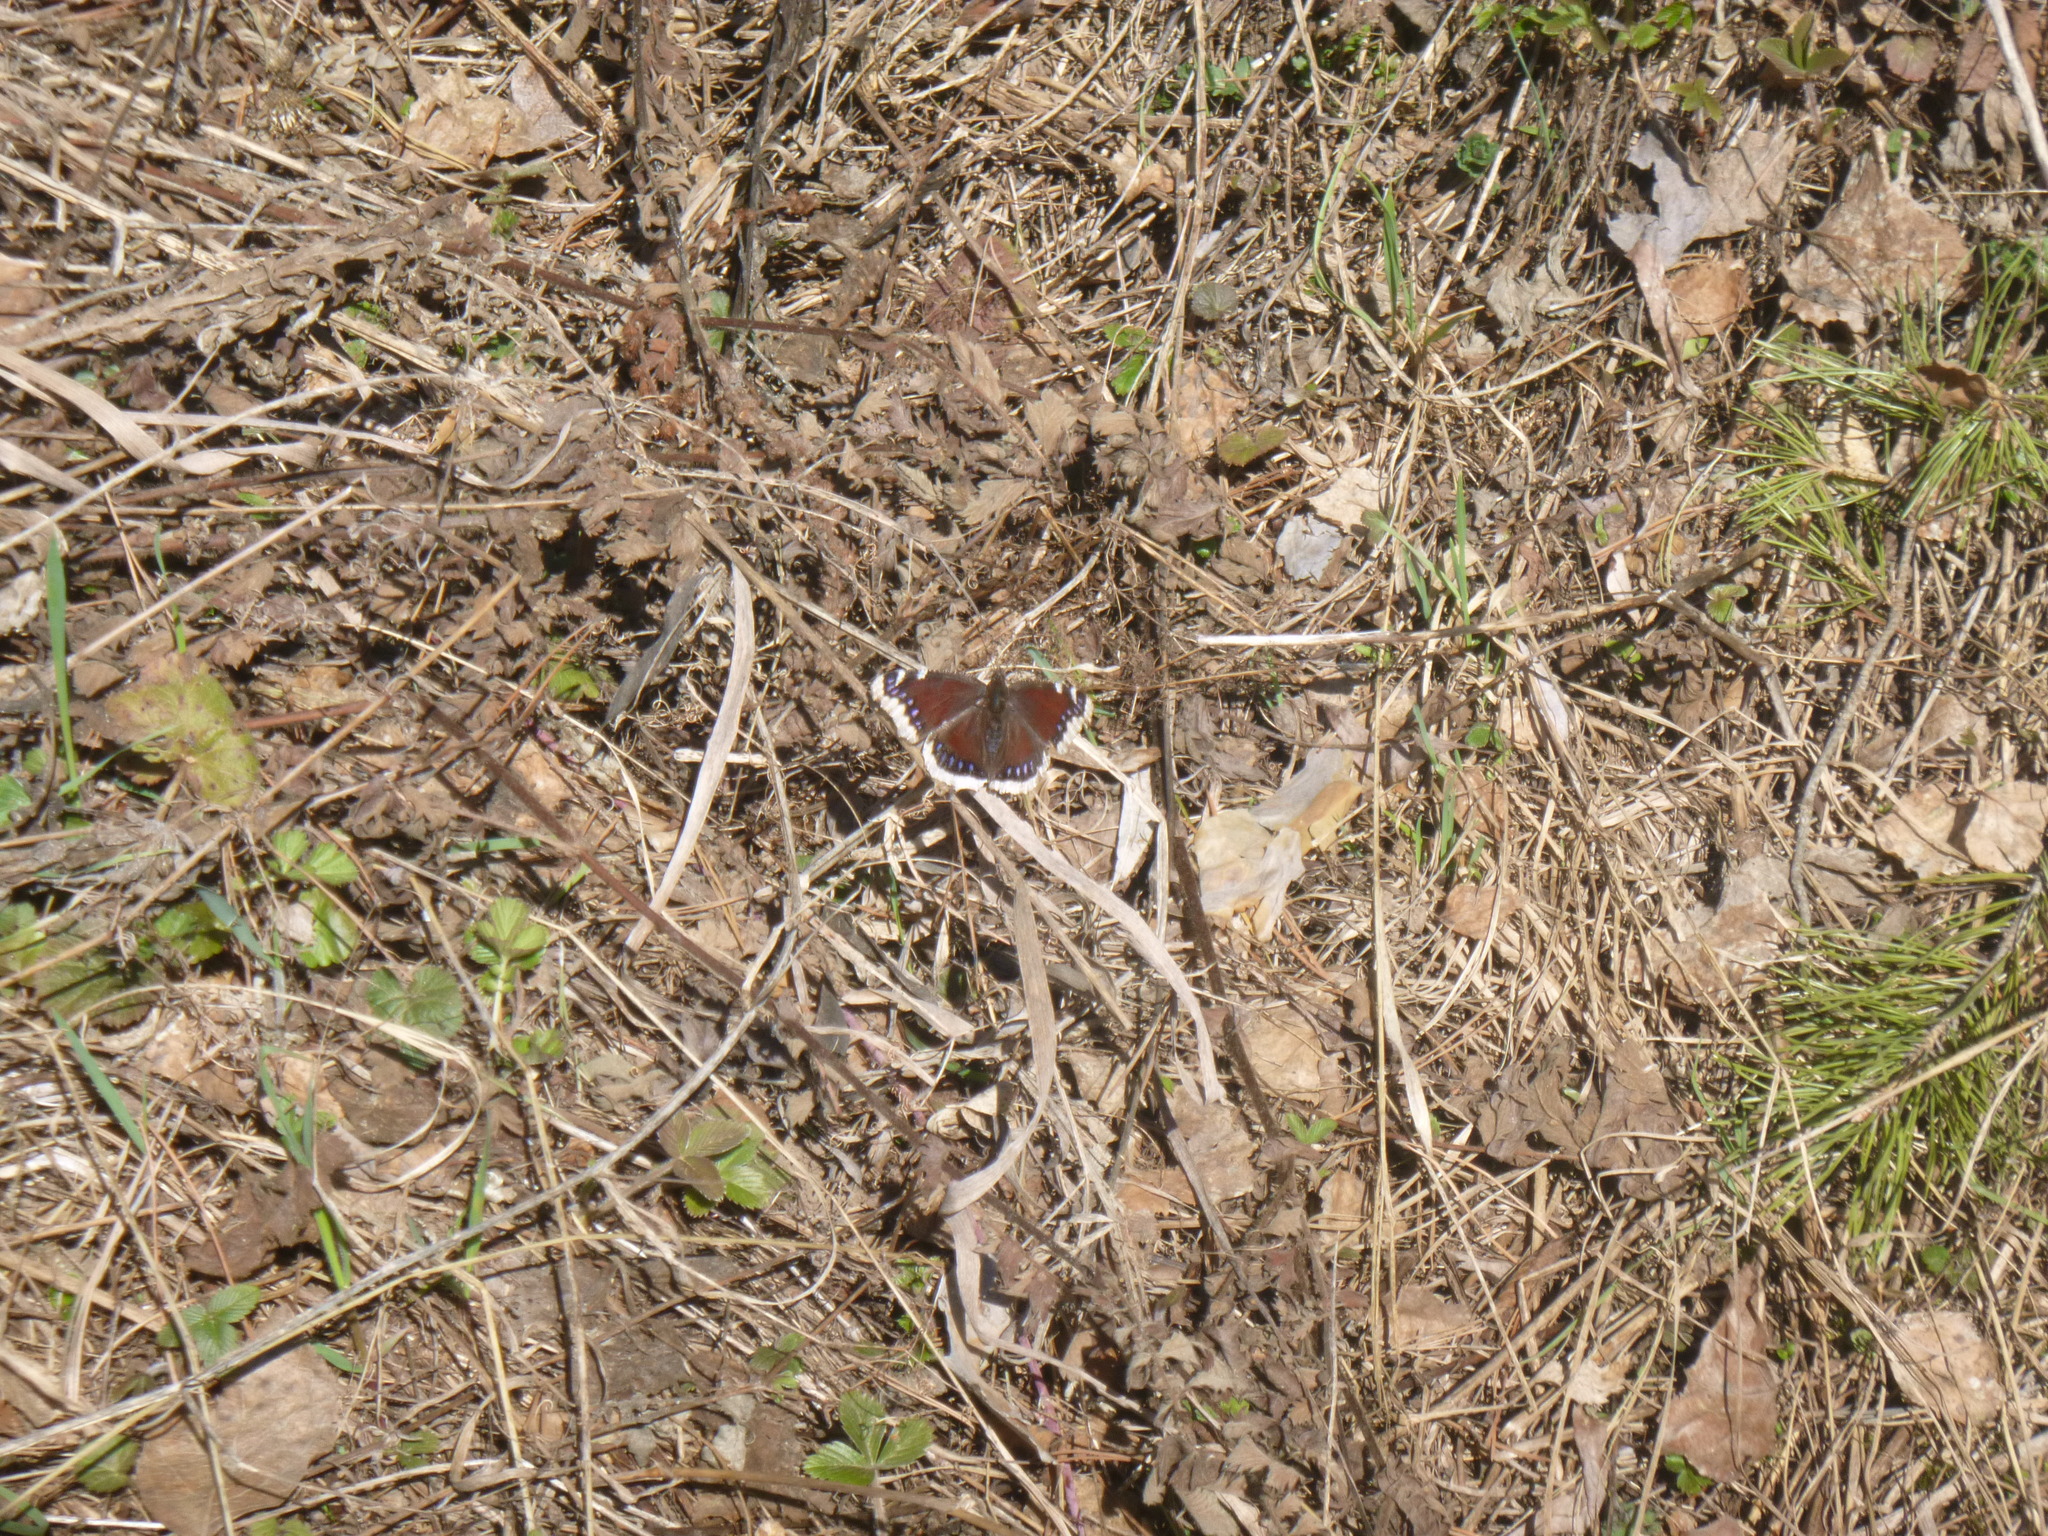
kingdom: Animalia
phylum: Arthropoda
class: Insecta
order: Lepidoptera
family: Nymphalidae
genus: Nymphalis
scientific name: Nymphalis antiopa
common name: Camberwell beauty
